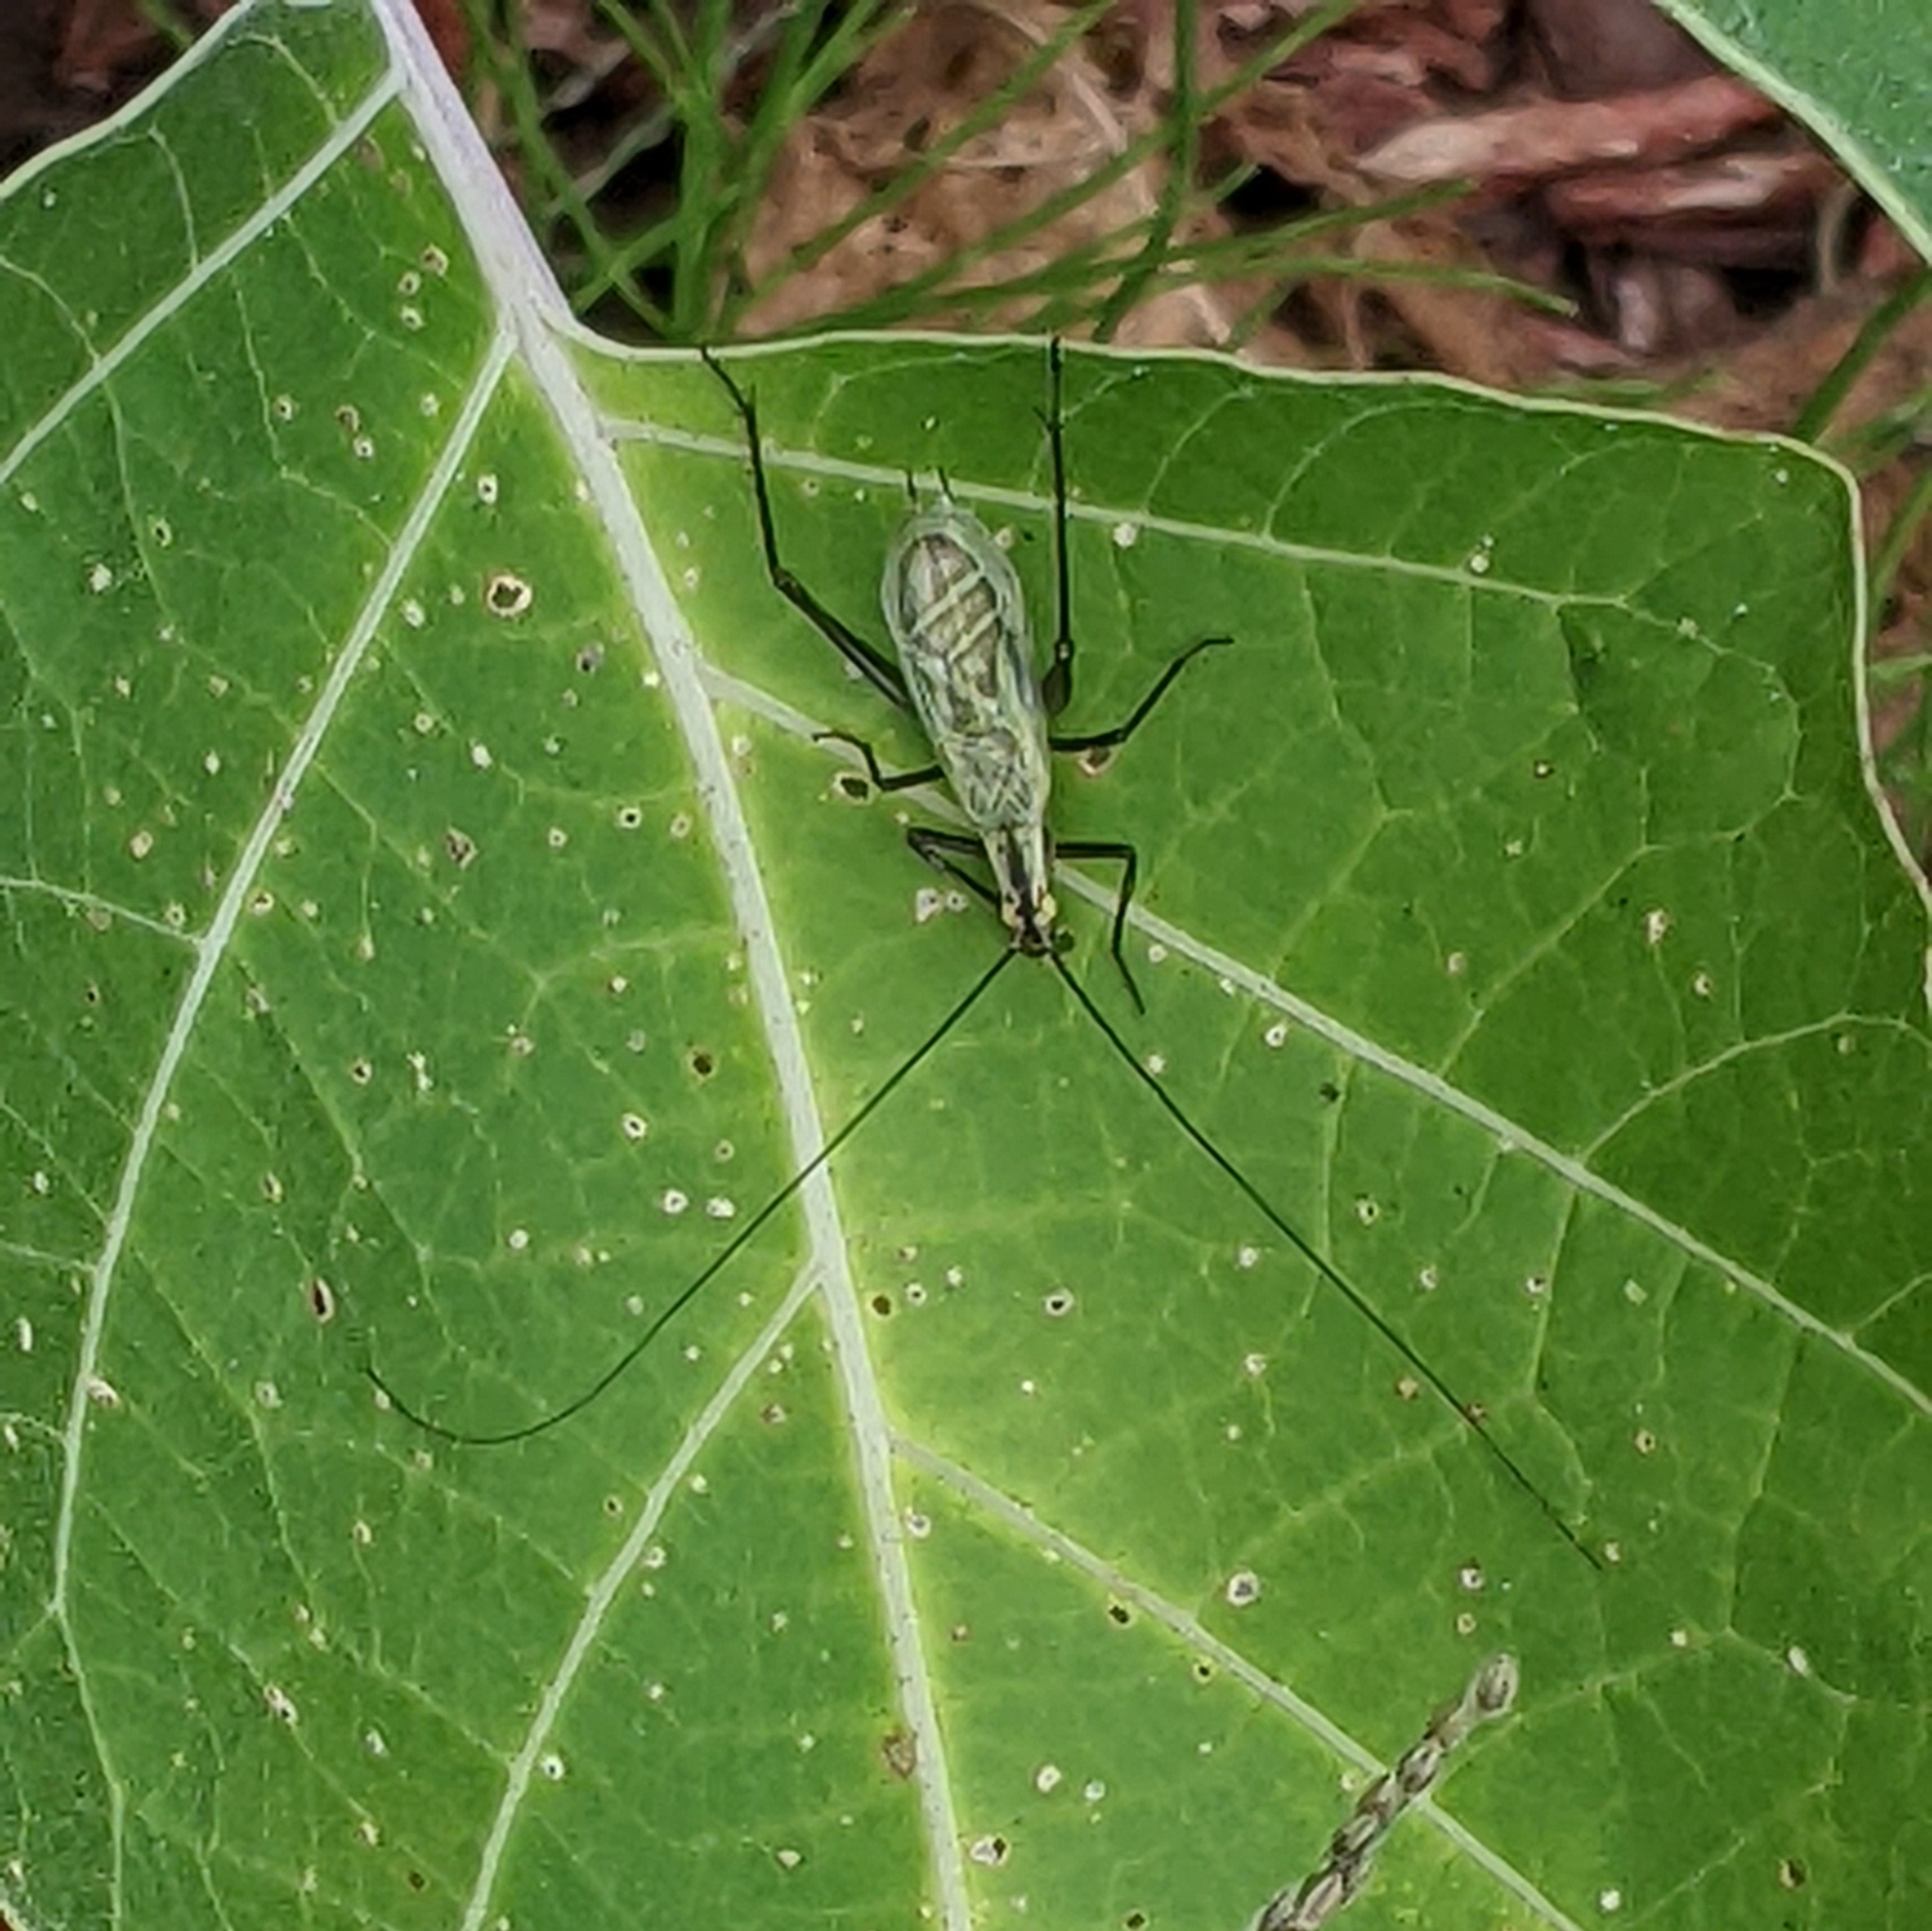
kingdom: Animalia
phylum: Arthropoda
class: Insecta
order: Orthoptera
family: Gryllidae
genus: Oecanthus
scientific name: Oecanthus nigricornis
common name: Black-horned tree cricket
